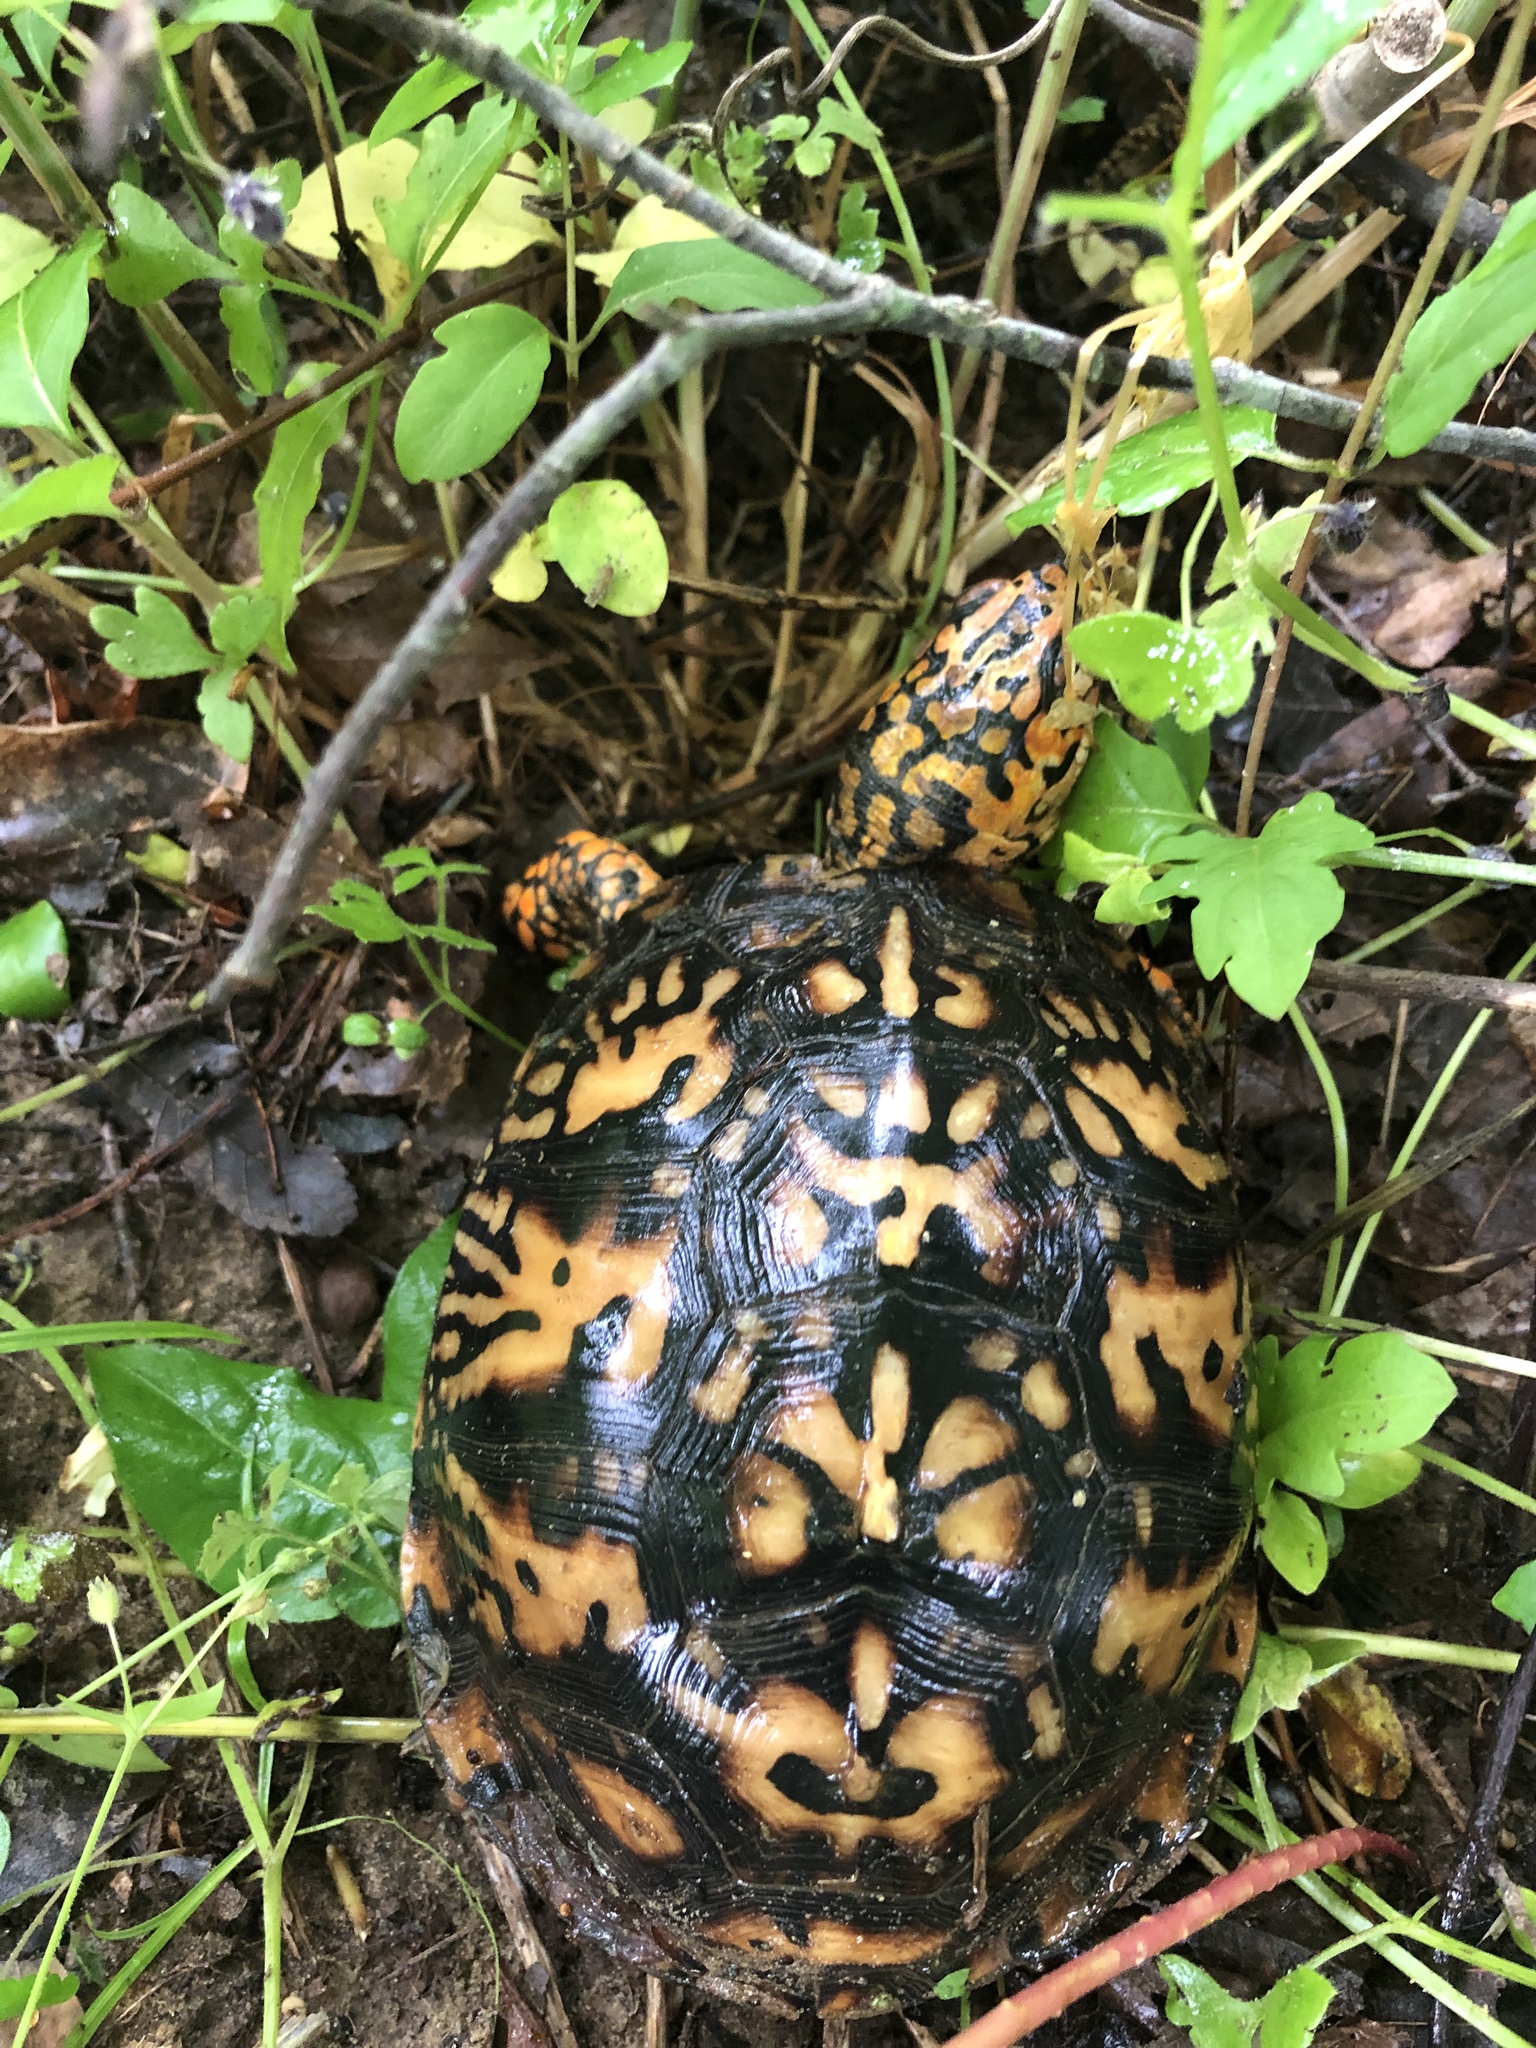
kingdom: Animalia
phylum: Chordata
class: Testudines
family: Emydidae
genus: Terrapene
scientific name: Terrapene carolina
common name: Common box turtle
